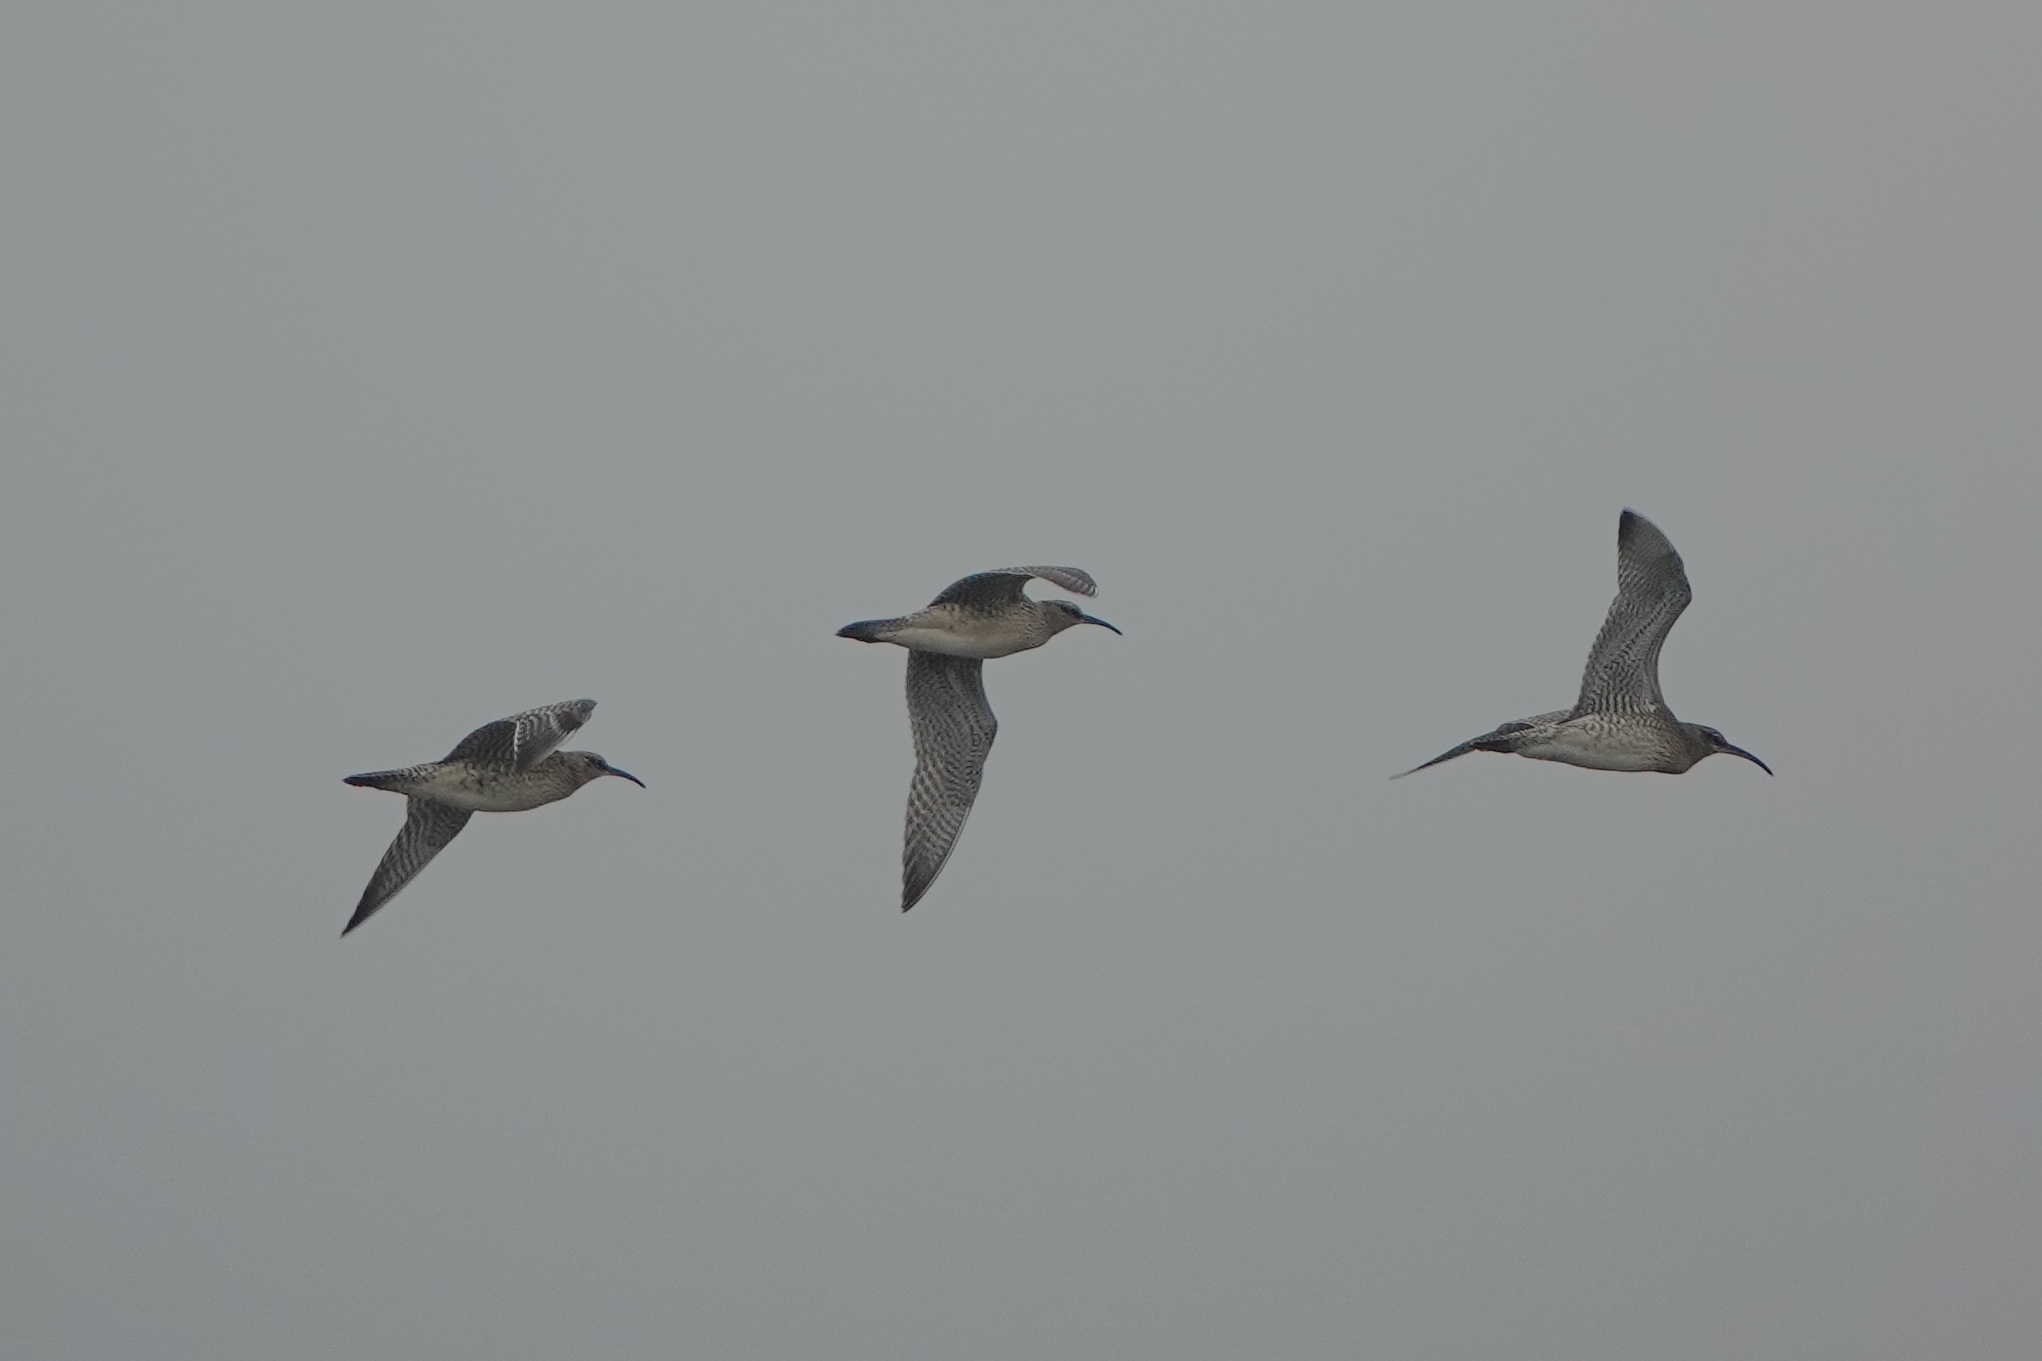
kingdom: Animalia
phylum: Chordata
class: Aves
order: Charadriiformes
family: Scolopacidae
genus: Numenius
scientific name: Numenius phaeopus
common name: Whimbrel
